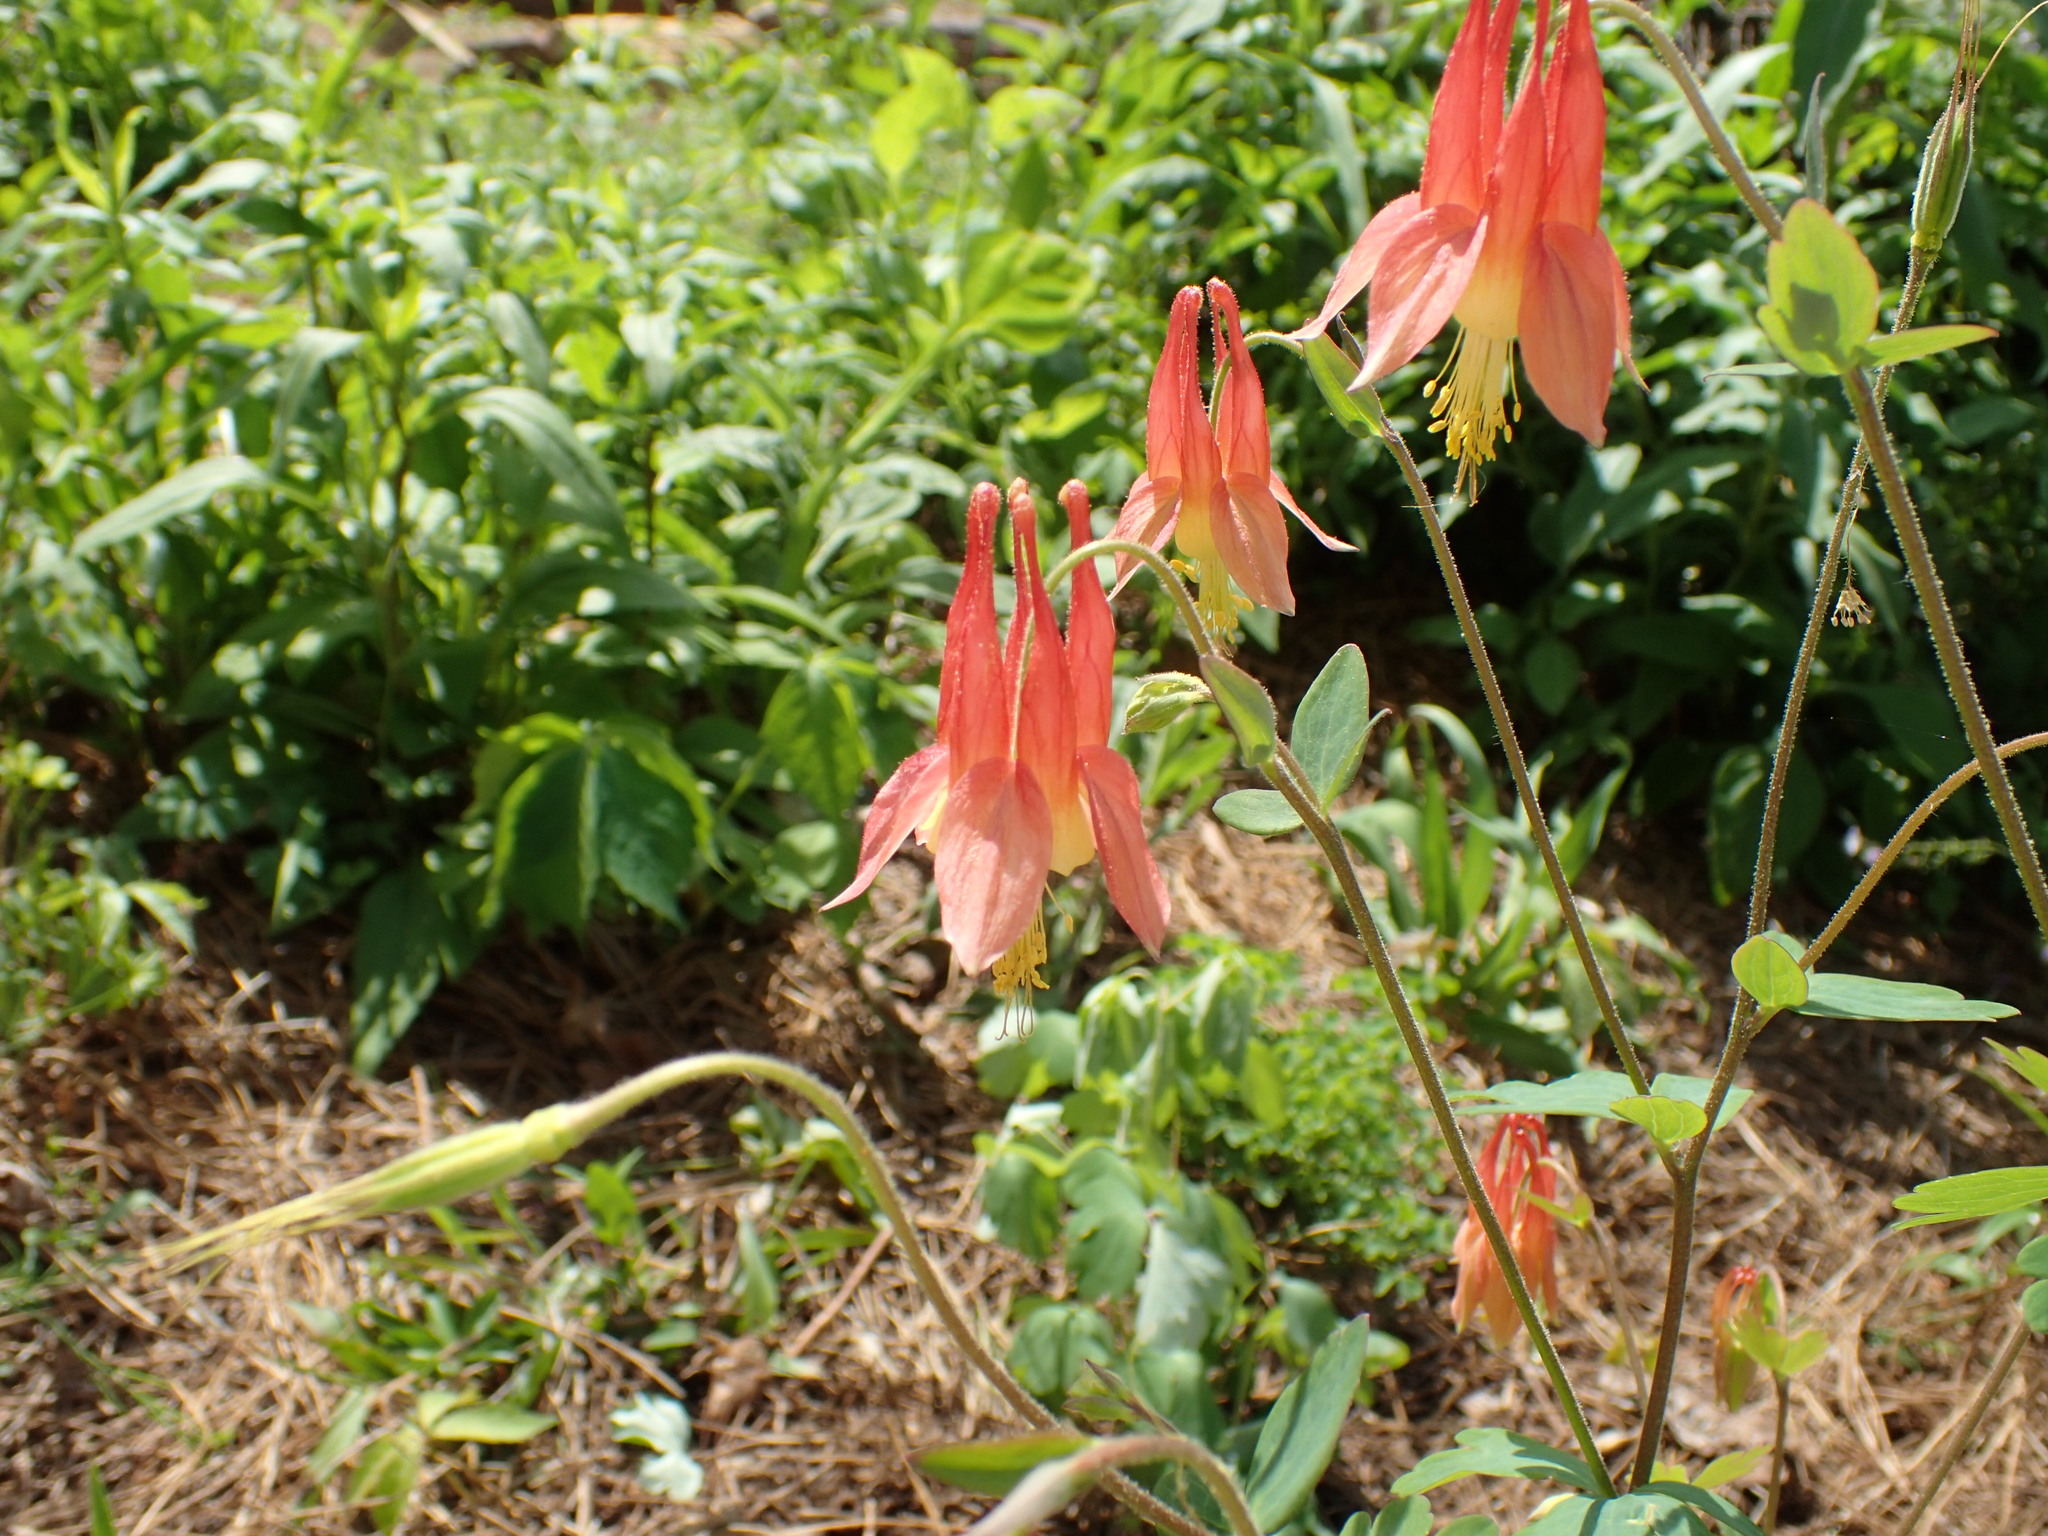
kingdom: Plantae
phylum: Tracheophyta
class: Magnoliopsida
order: Ranunculales
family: Ranunculaceae
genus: Aquilegia
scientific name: Aquilegia canadensis
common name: American columbine
